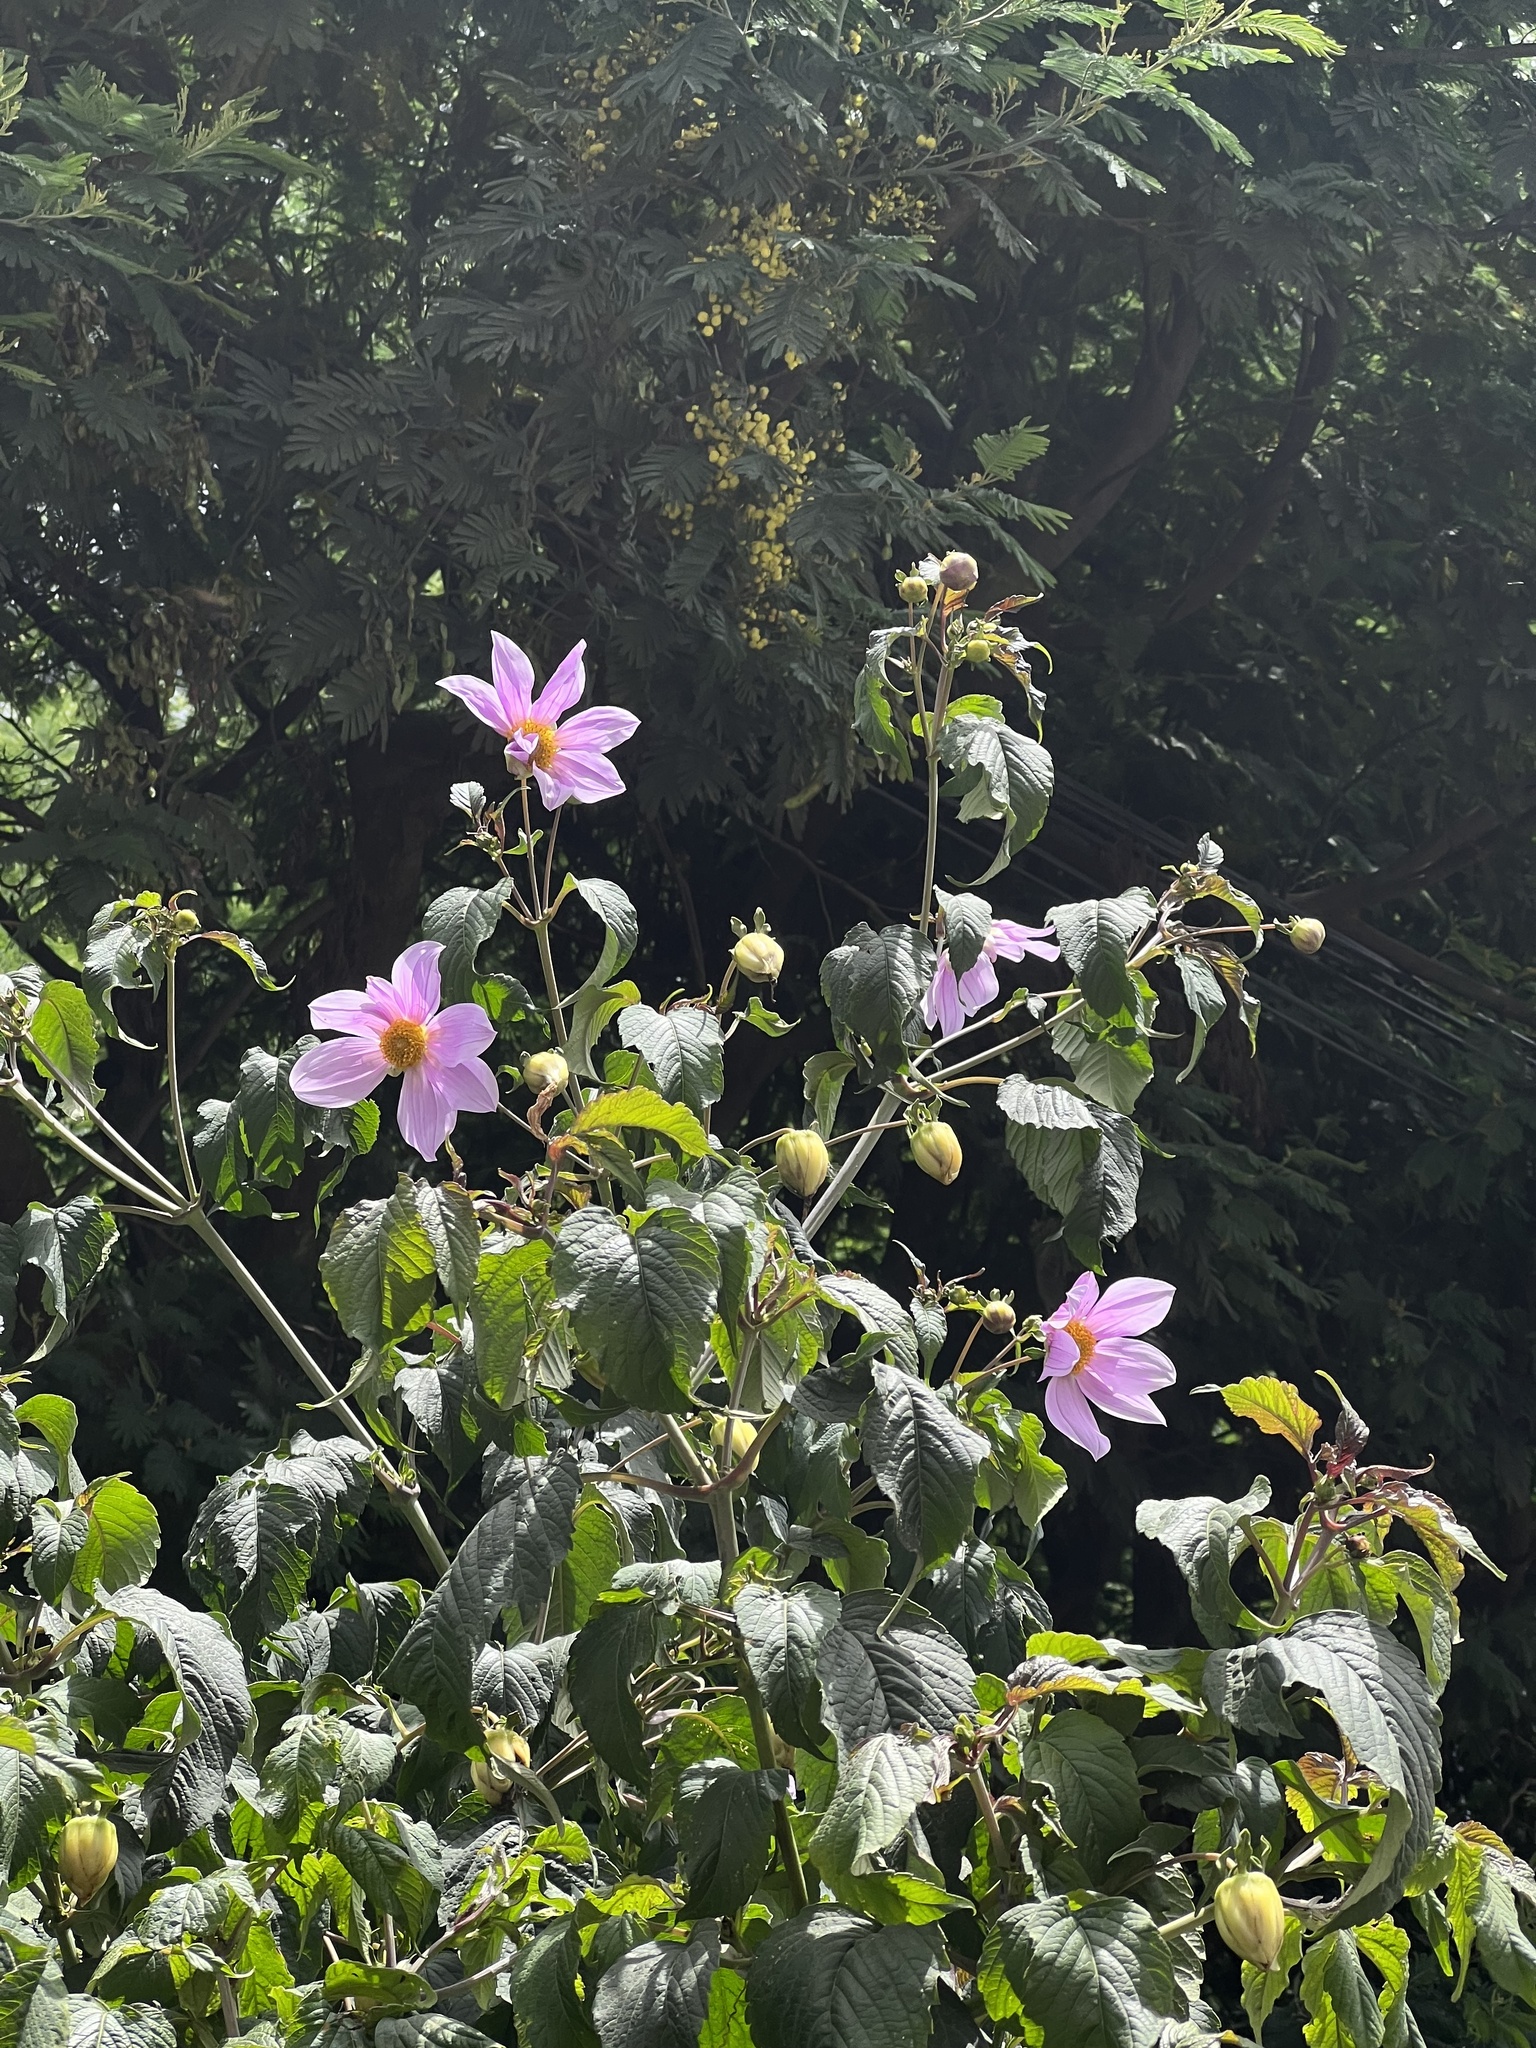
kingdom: Plantae
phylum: Tracheophyta
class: Magnoliopsida
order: Asterales
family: Asteraceae
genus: Dahlia
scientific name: Dahlia imperialis
